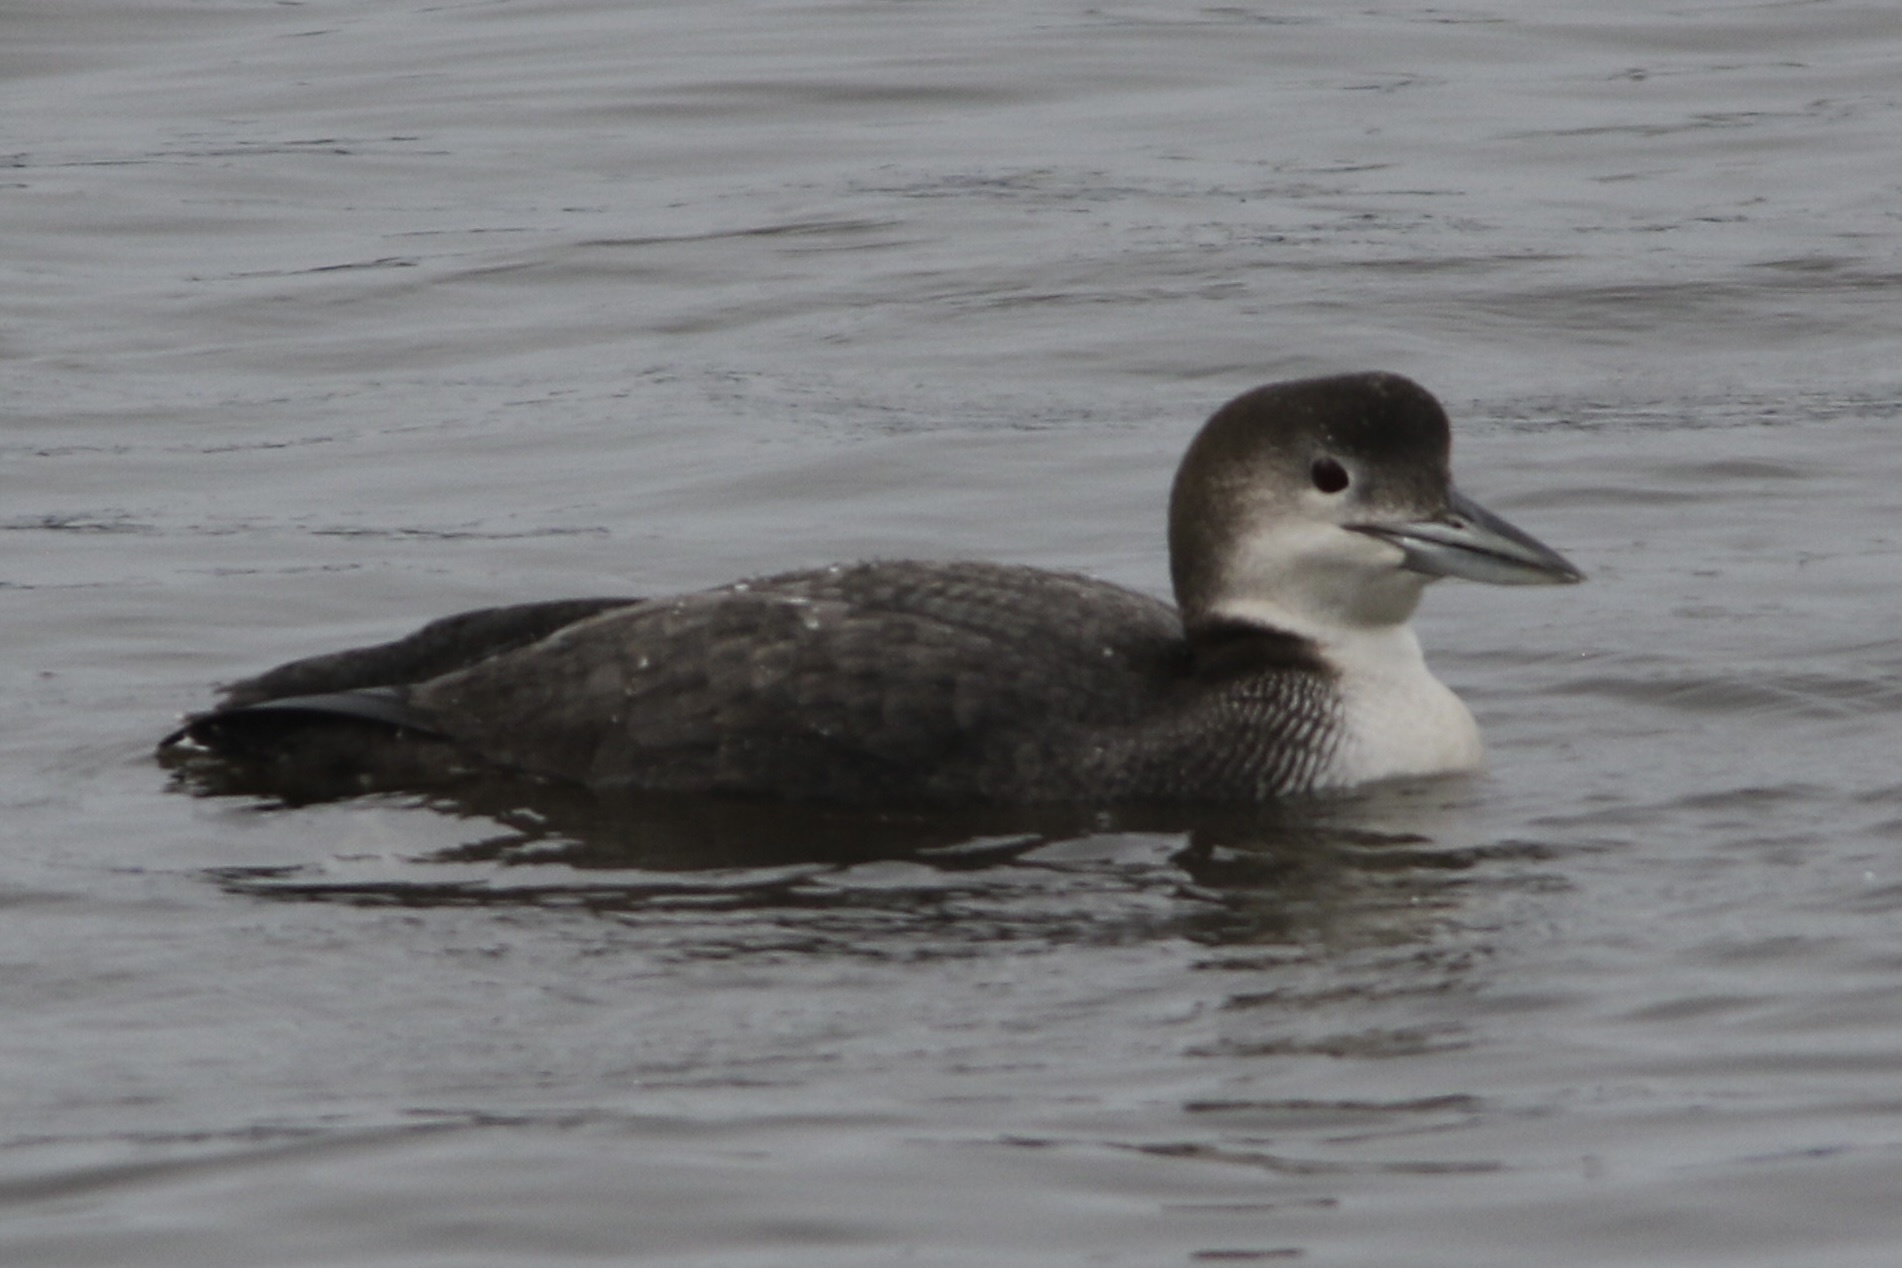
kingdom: Animalia
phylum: Chordata
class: Aves
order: Gaviiformes
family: Gaviidae
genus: Gavia
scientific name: Gavia immer
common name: Common loon
